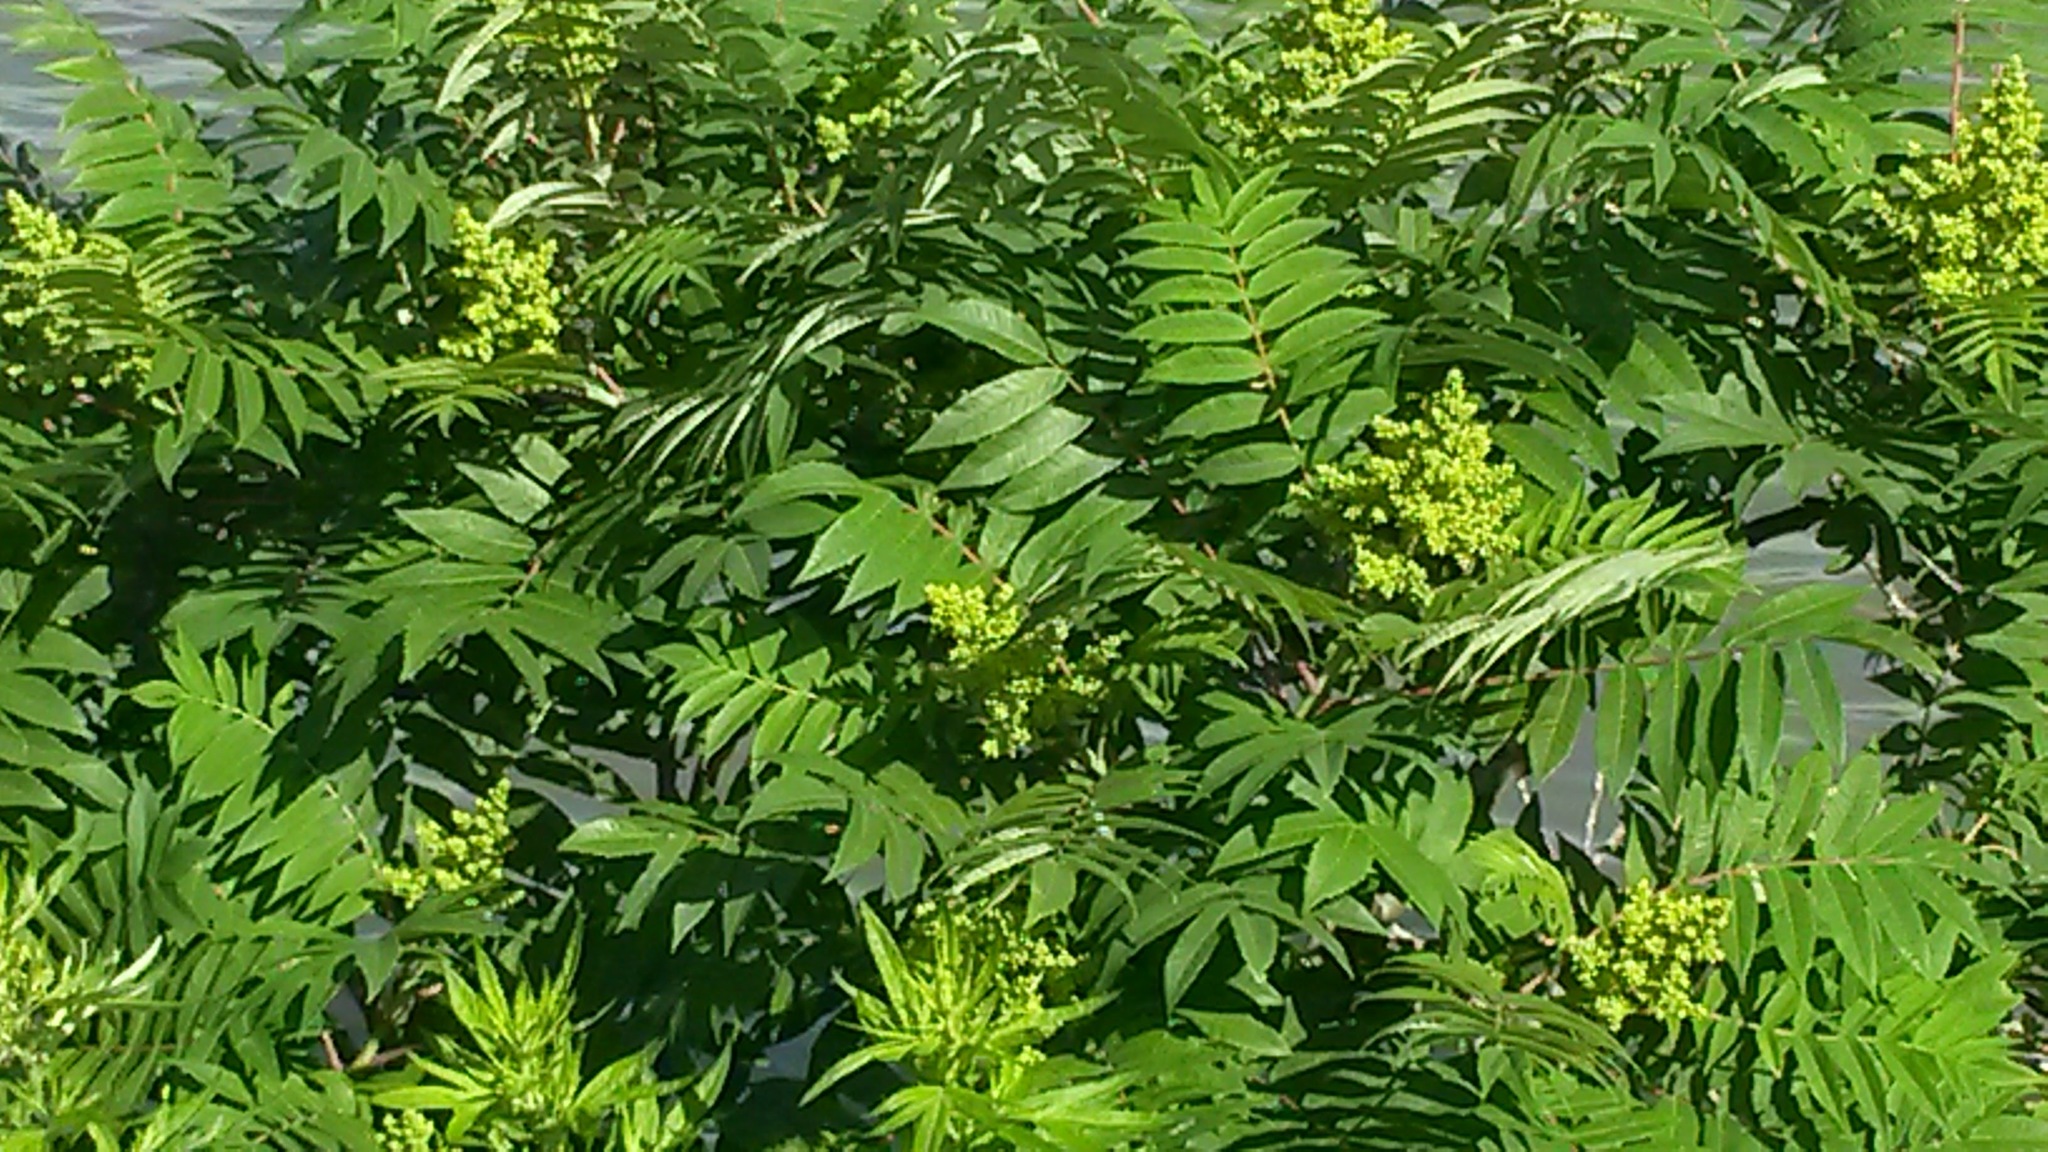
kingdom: Plantae
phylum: Tracheophyta
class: Magnoliopsida
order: Sapindales
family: Anacardiaceae
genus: Rhus
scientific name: Rhus glabra
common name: Scarlet sumac
